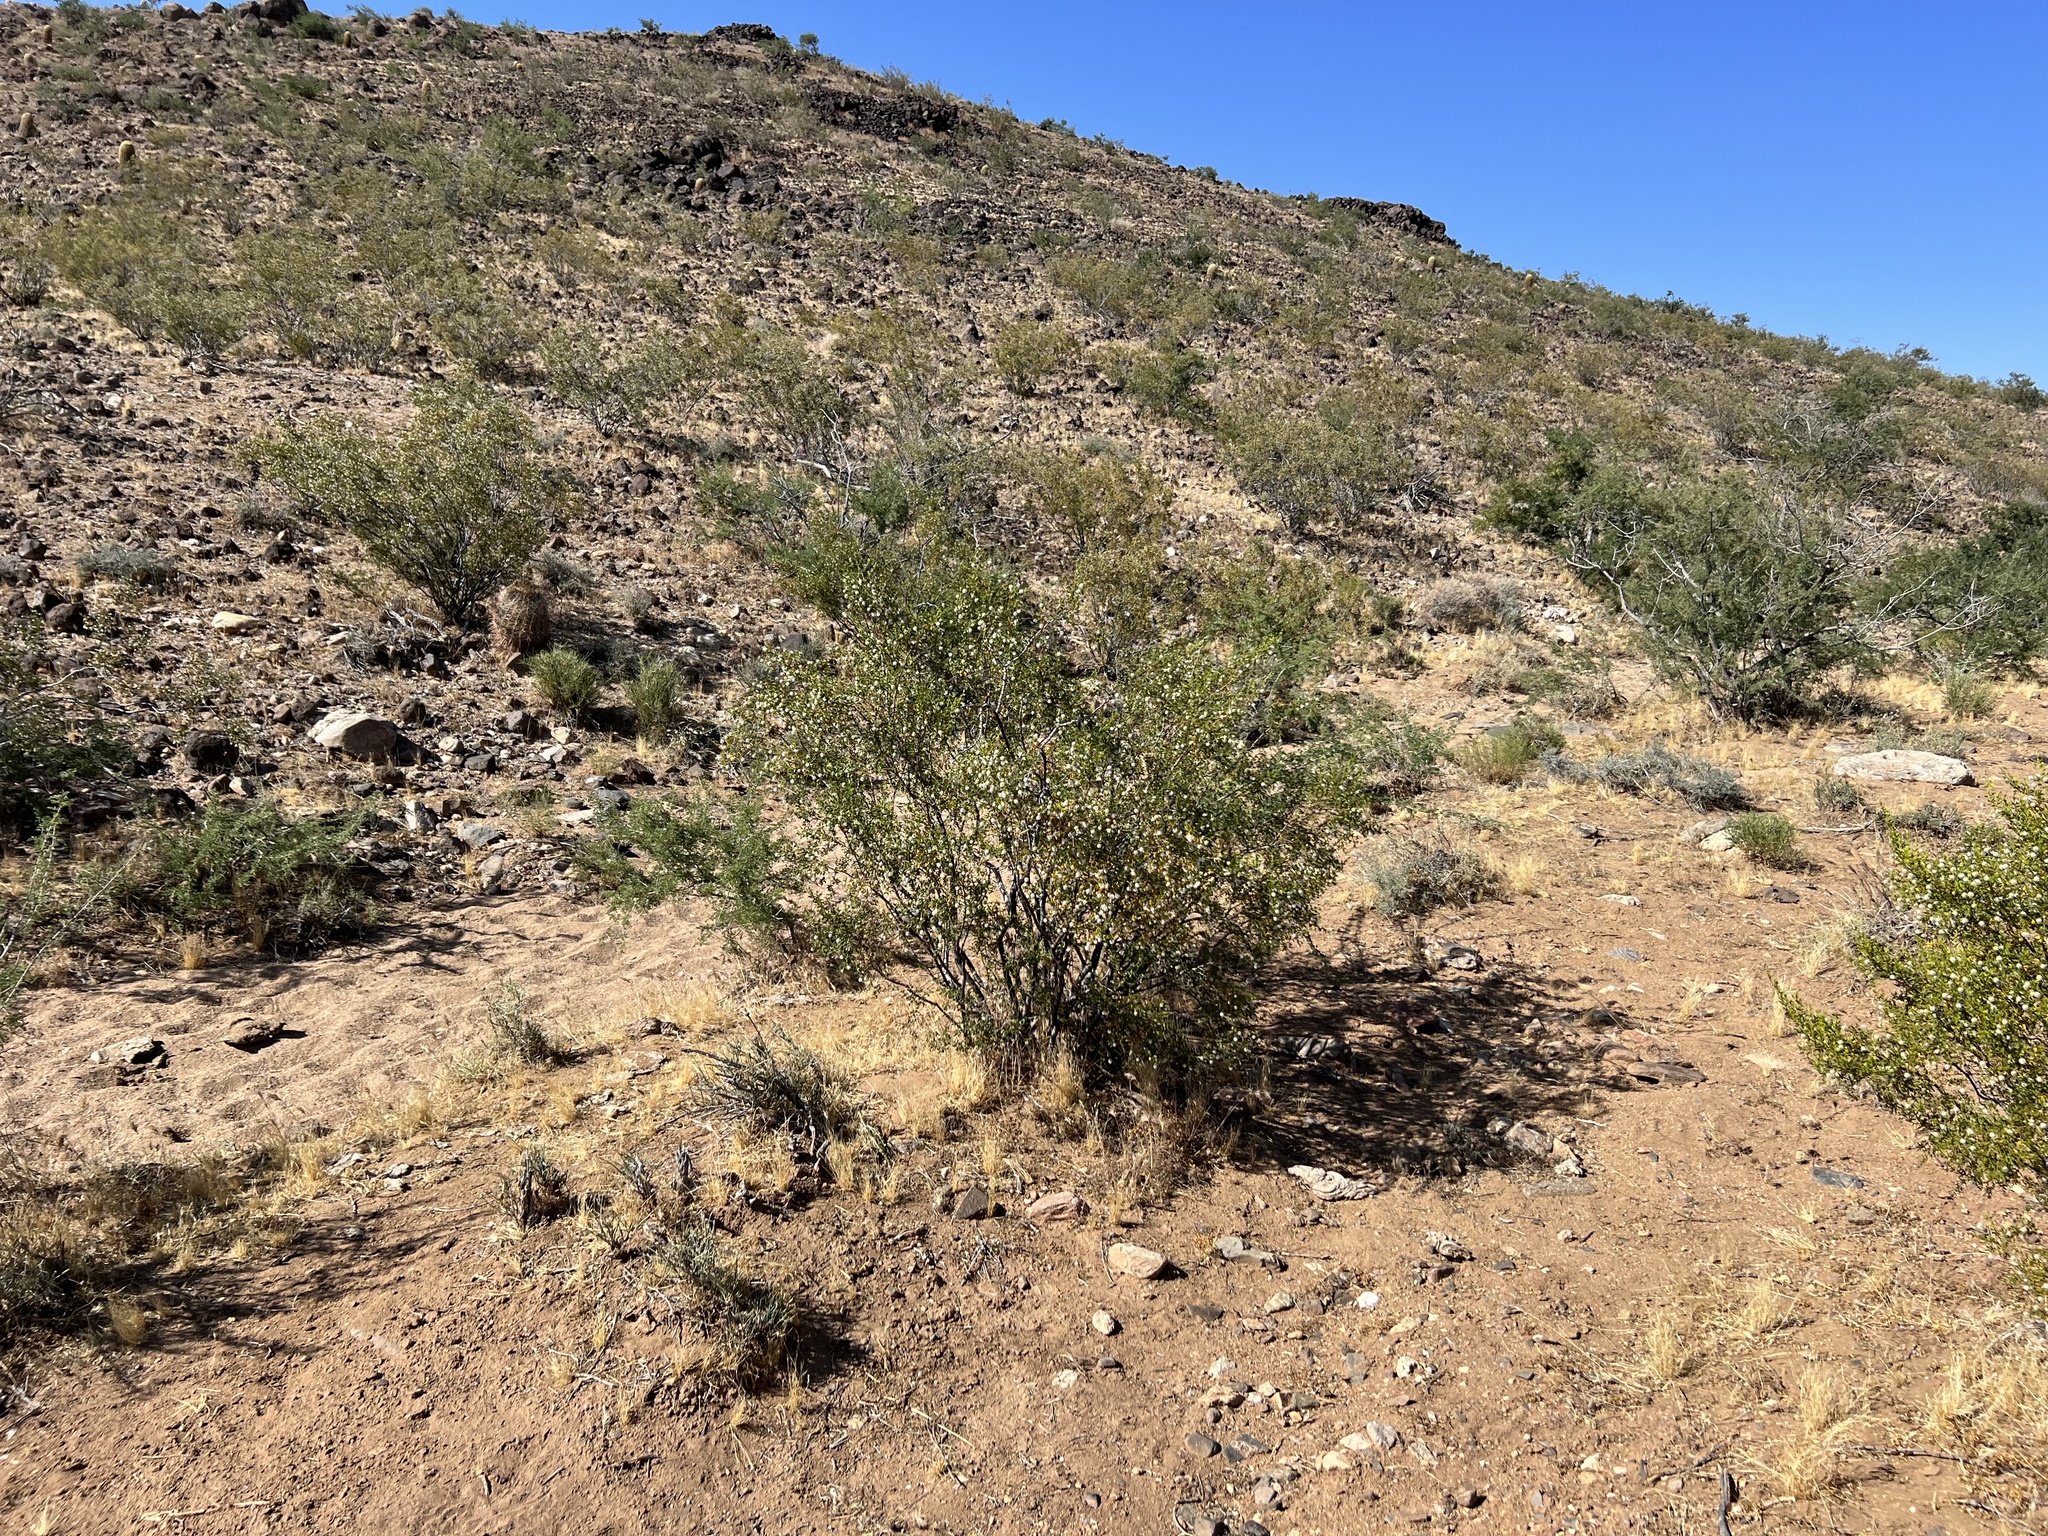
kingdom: Plantae
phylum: Tracheophyta
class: Magnoliopsida
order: Zygophyllales
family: Zygophyllaceae
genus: Larrea
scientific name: Larrea tridentata
